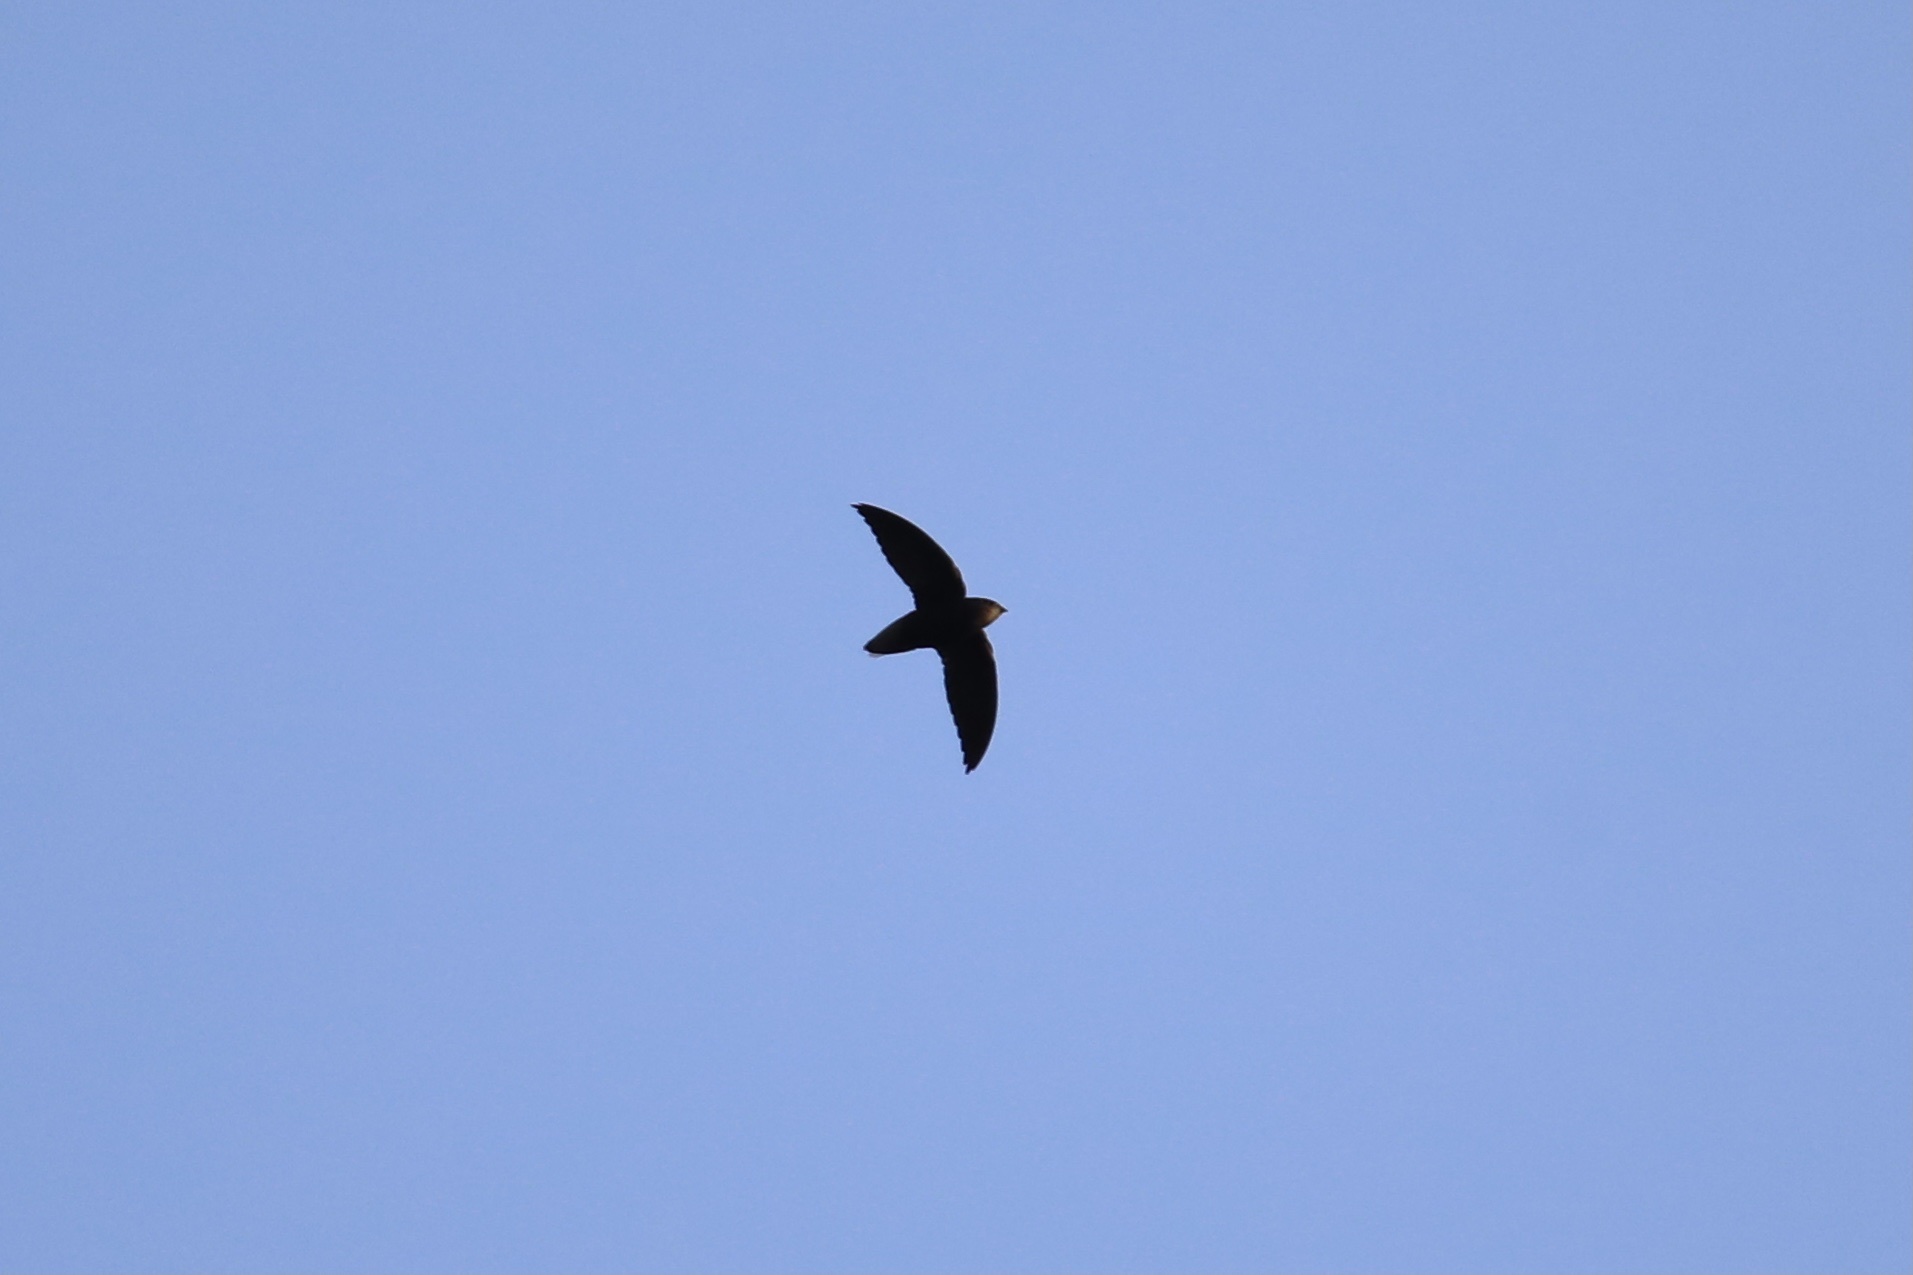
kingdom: Animalia
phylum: Chordata
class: Aves
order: Apodiformes
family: Apodidae
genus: Chaetura
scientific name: Chaetura brachyura
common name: Short-tailed swift
